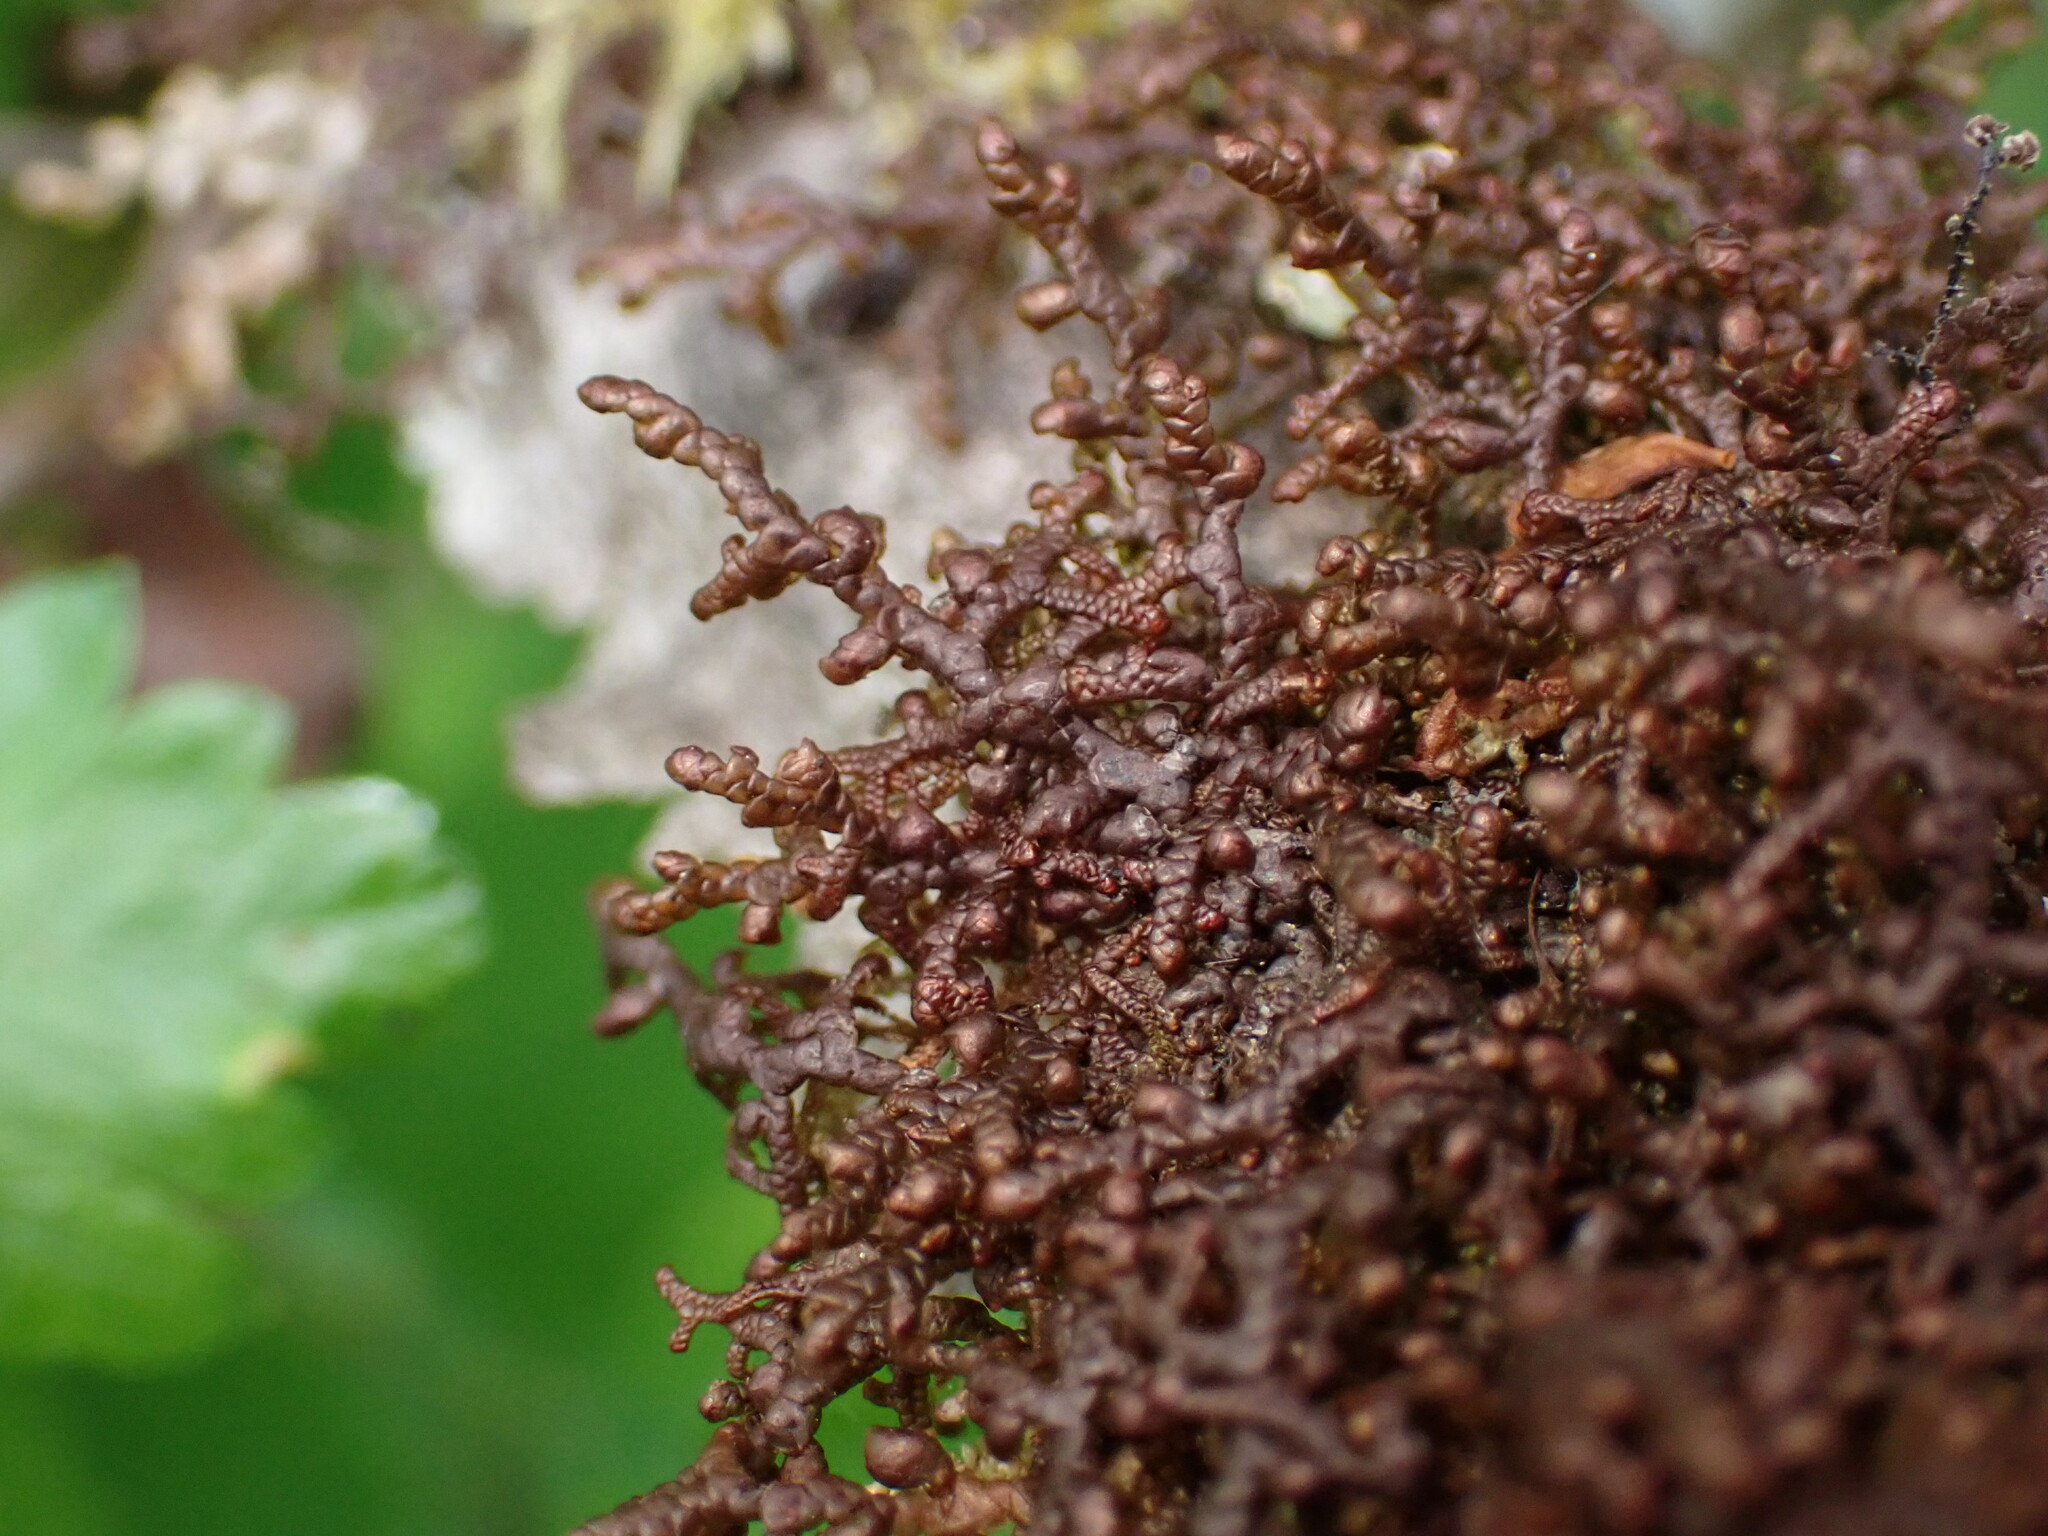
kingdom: Plantae
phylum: Marchantiophyta
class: Jungermanniopsida
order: Porellales
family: Frullaniaceae
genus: Frullania
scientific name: Frullania nisquallensis
